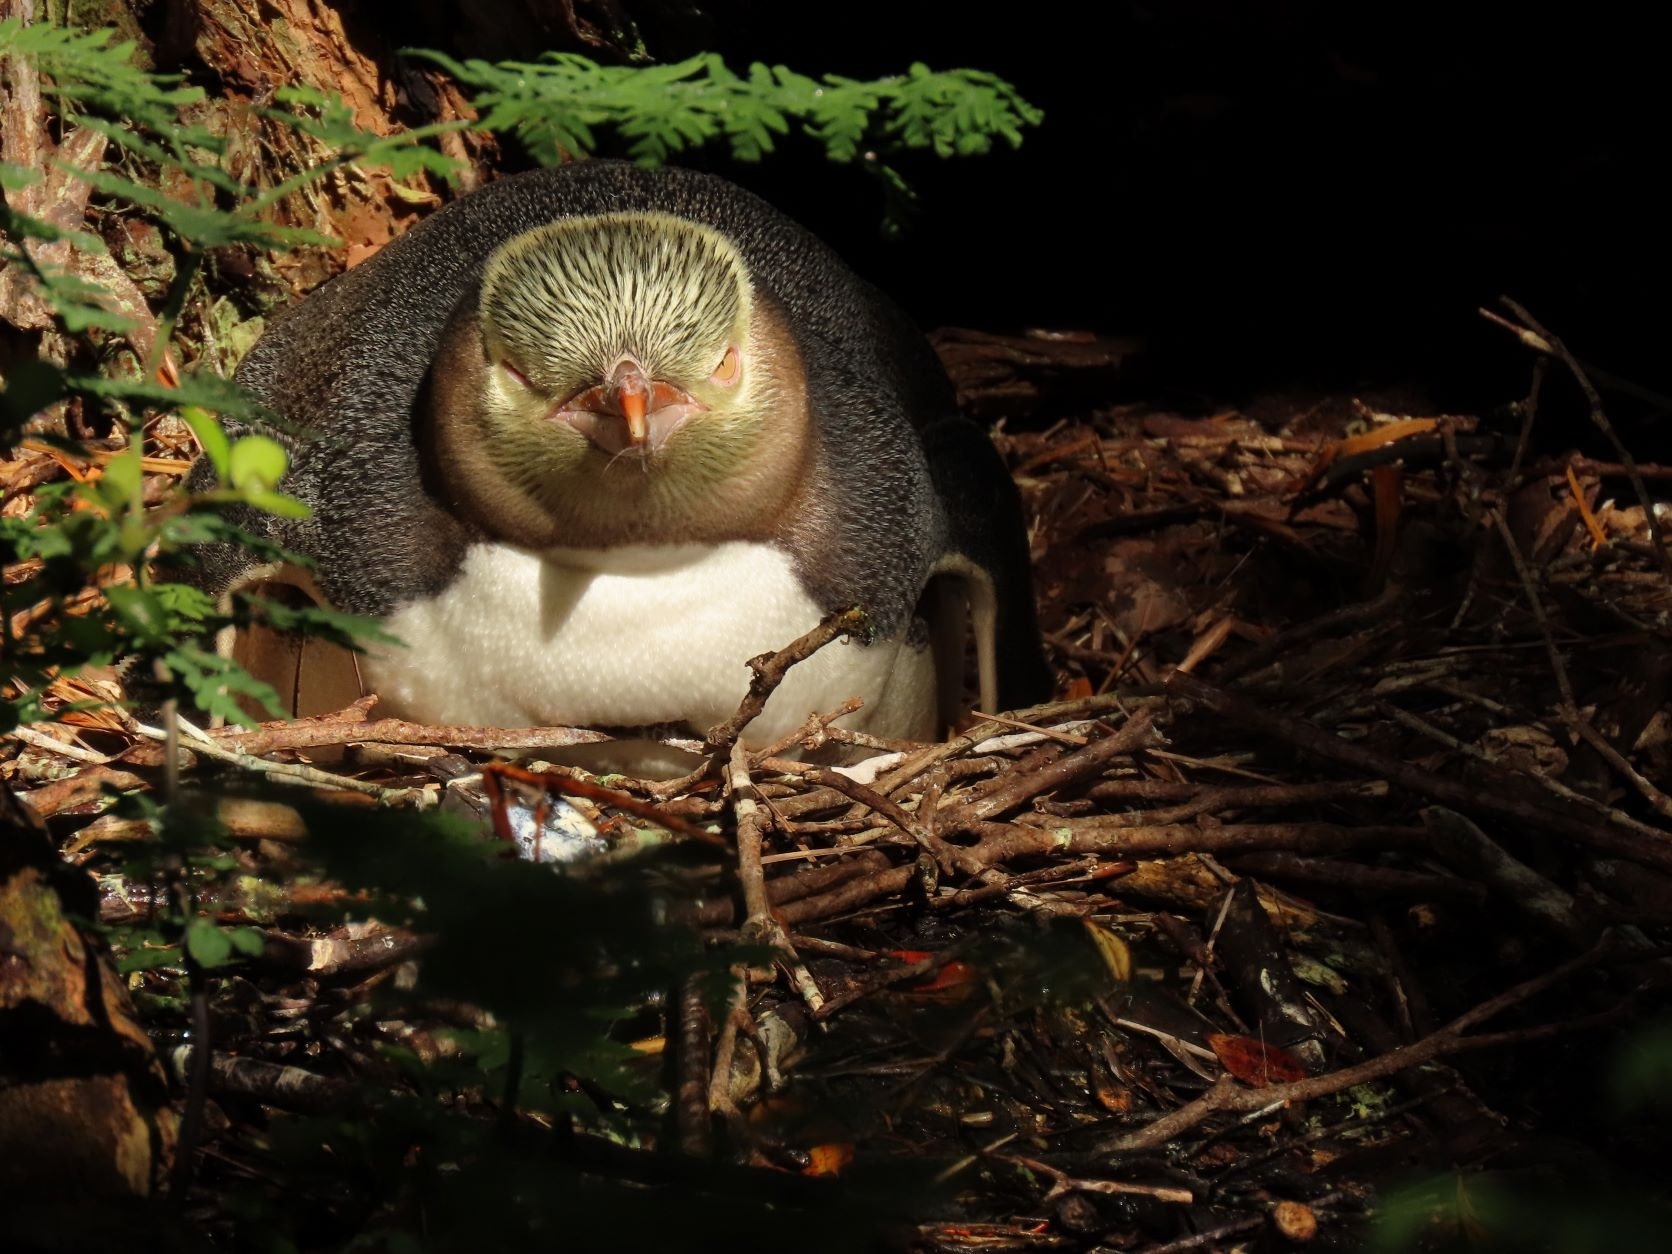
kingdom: Animalia
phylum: Chordata
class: Aves
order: Sphenisciformes
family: Spheniscidae
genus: Megadyptes
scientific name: Megadyptes antipodes
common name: Yellow-eyed penguin
